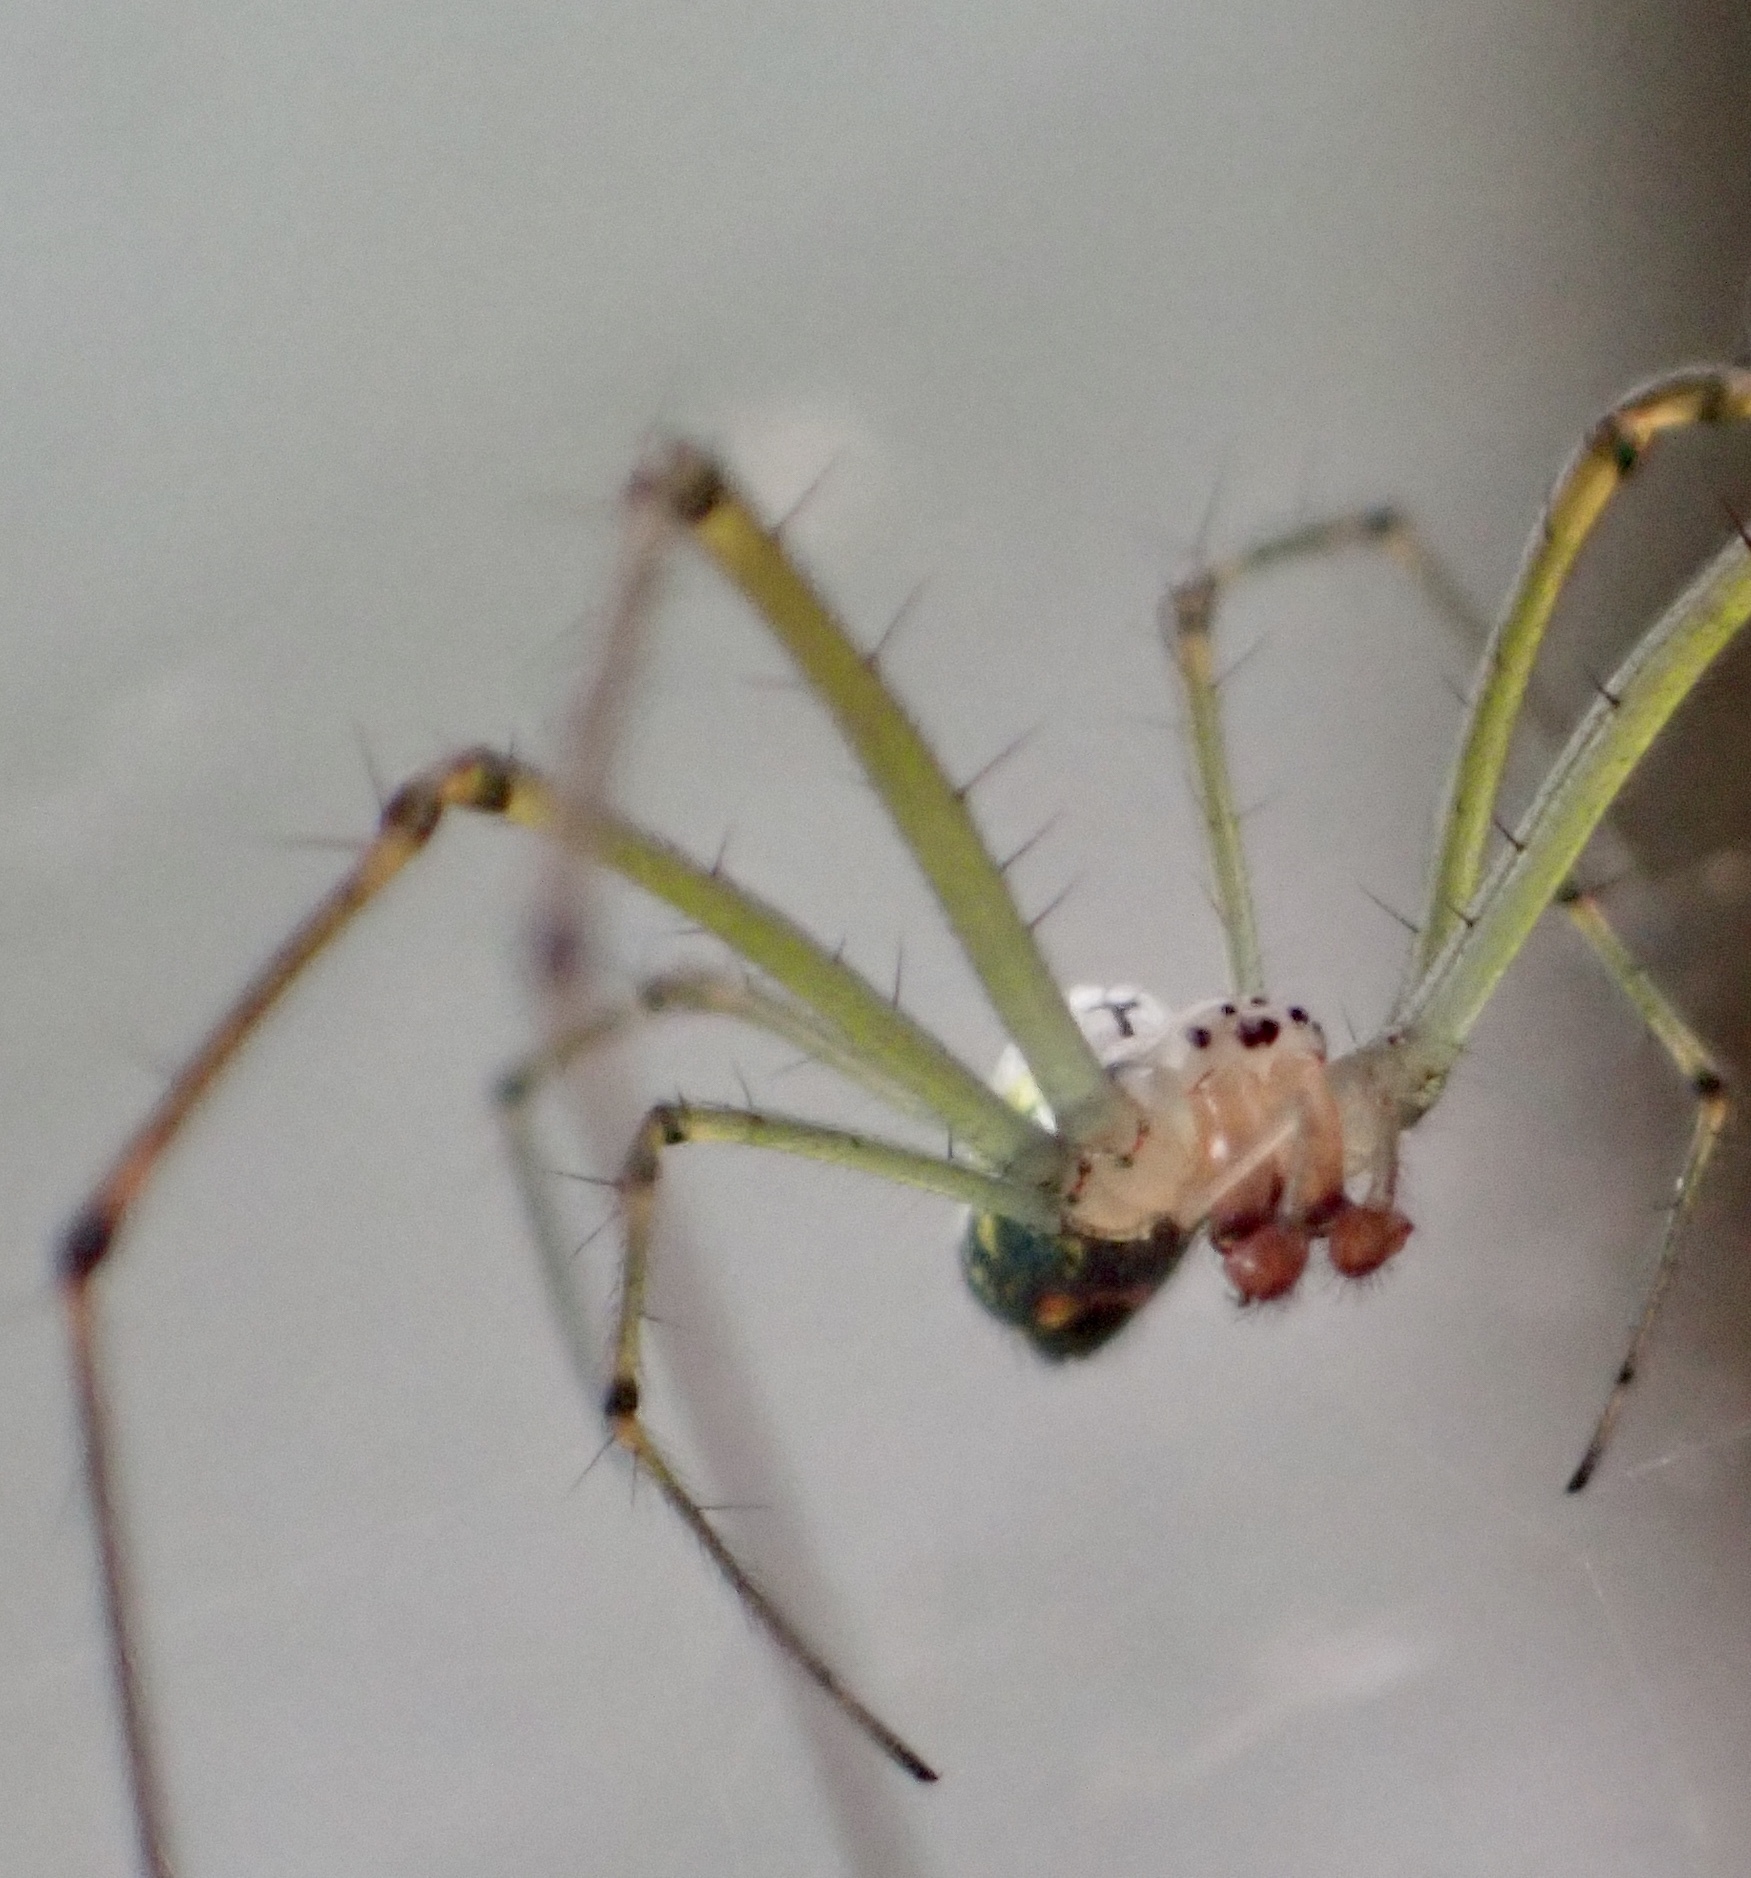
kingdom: Animalia
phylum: Arthropoda
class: Arachnida
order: Araneae
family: Tetragnathidae
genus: Leucauge
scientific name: Leucauge venusta
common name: Longjawed orb weavers
